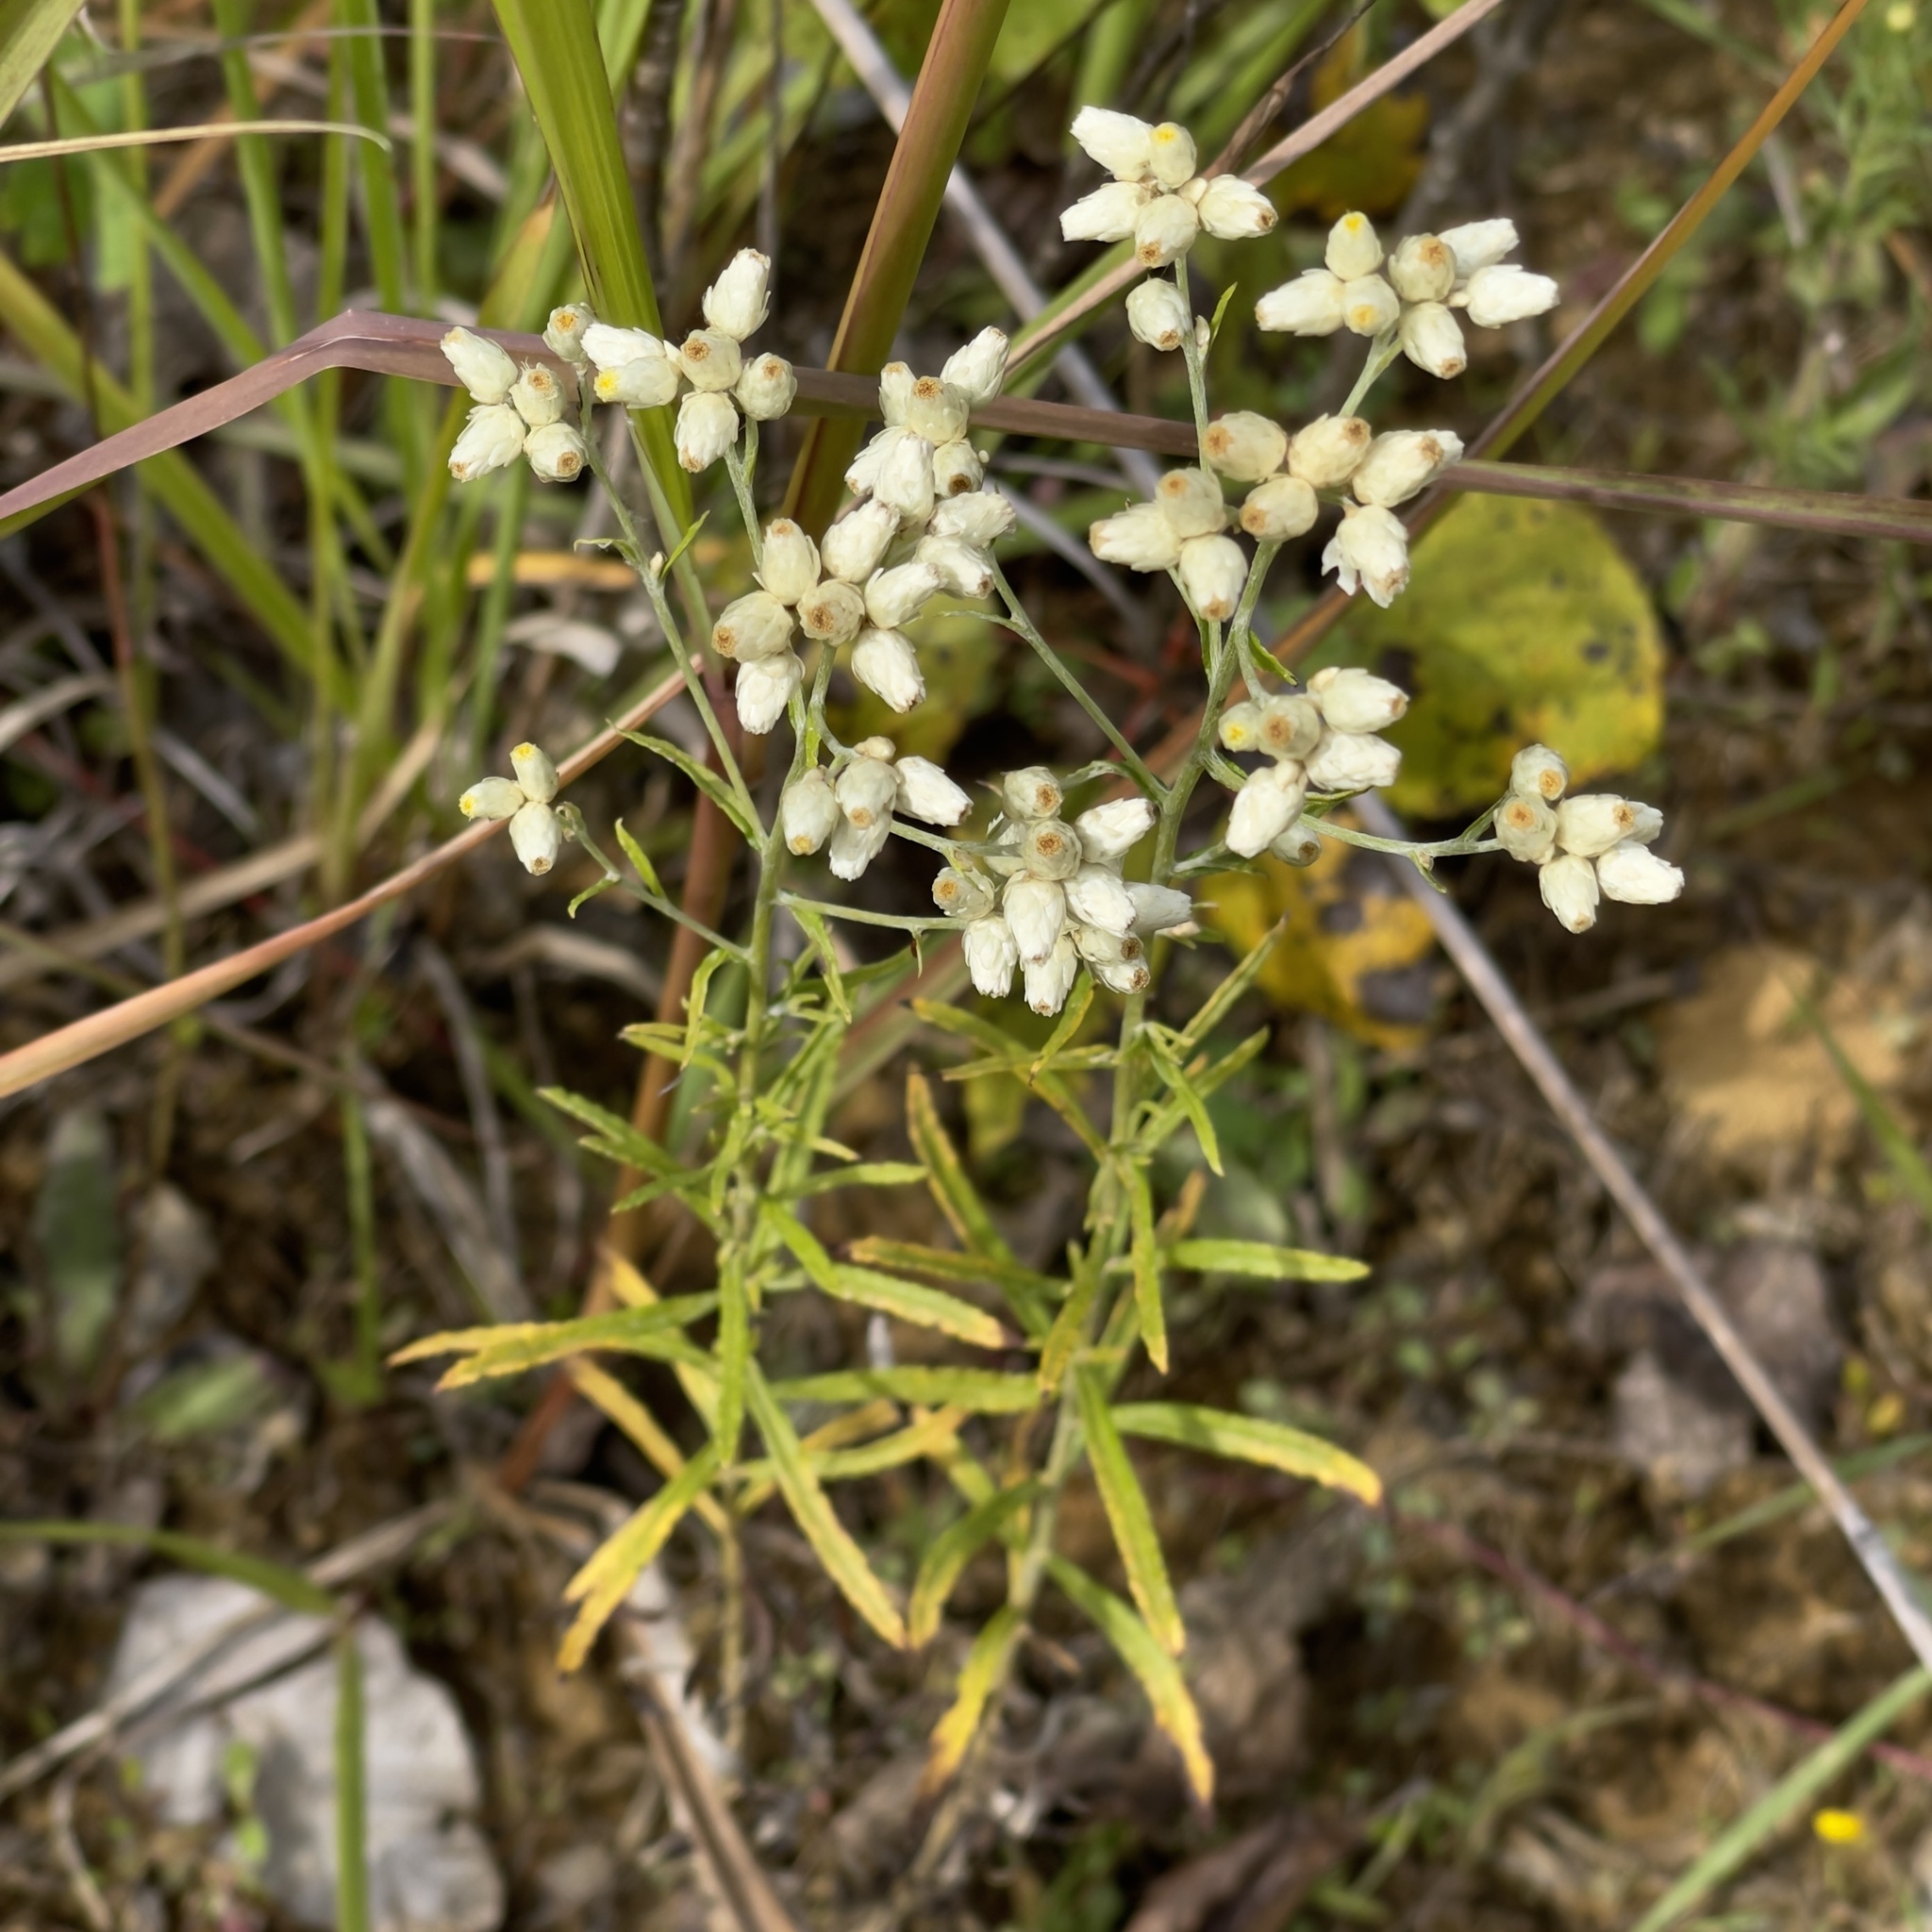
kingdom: Plantae
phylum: Tracheophyta
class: Magnoliopsida
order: Asterales
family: Asteraceae
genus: Pseudognaphalium
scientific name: Pseudognaphalium obtusifolium
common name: Eastern rabbit-tobacco
